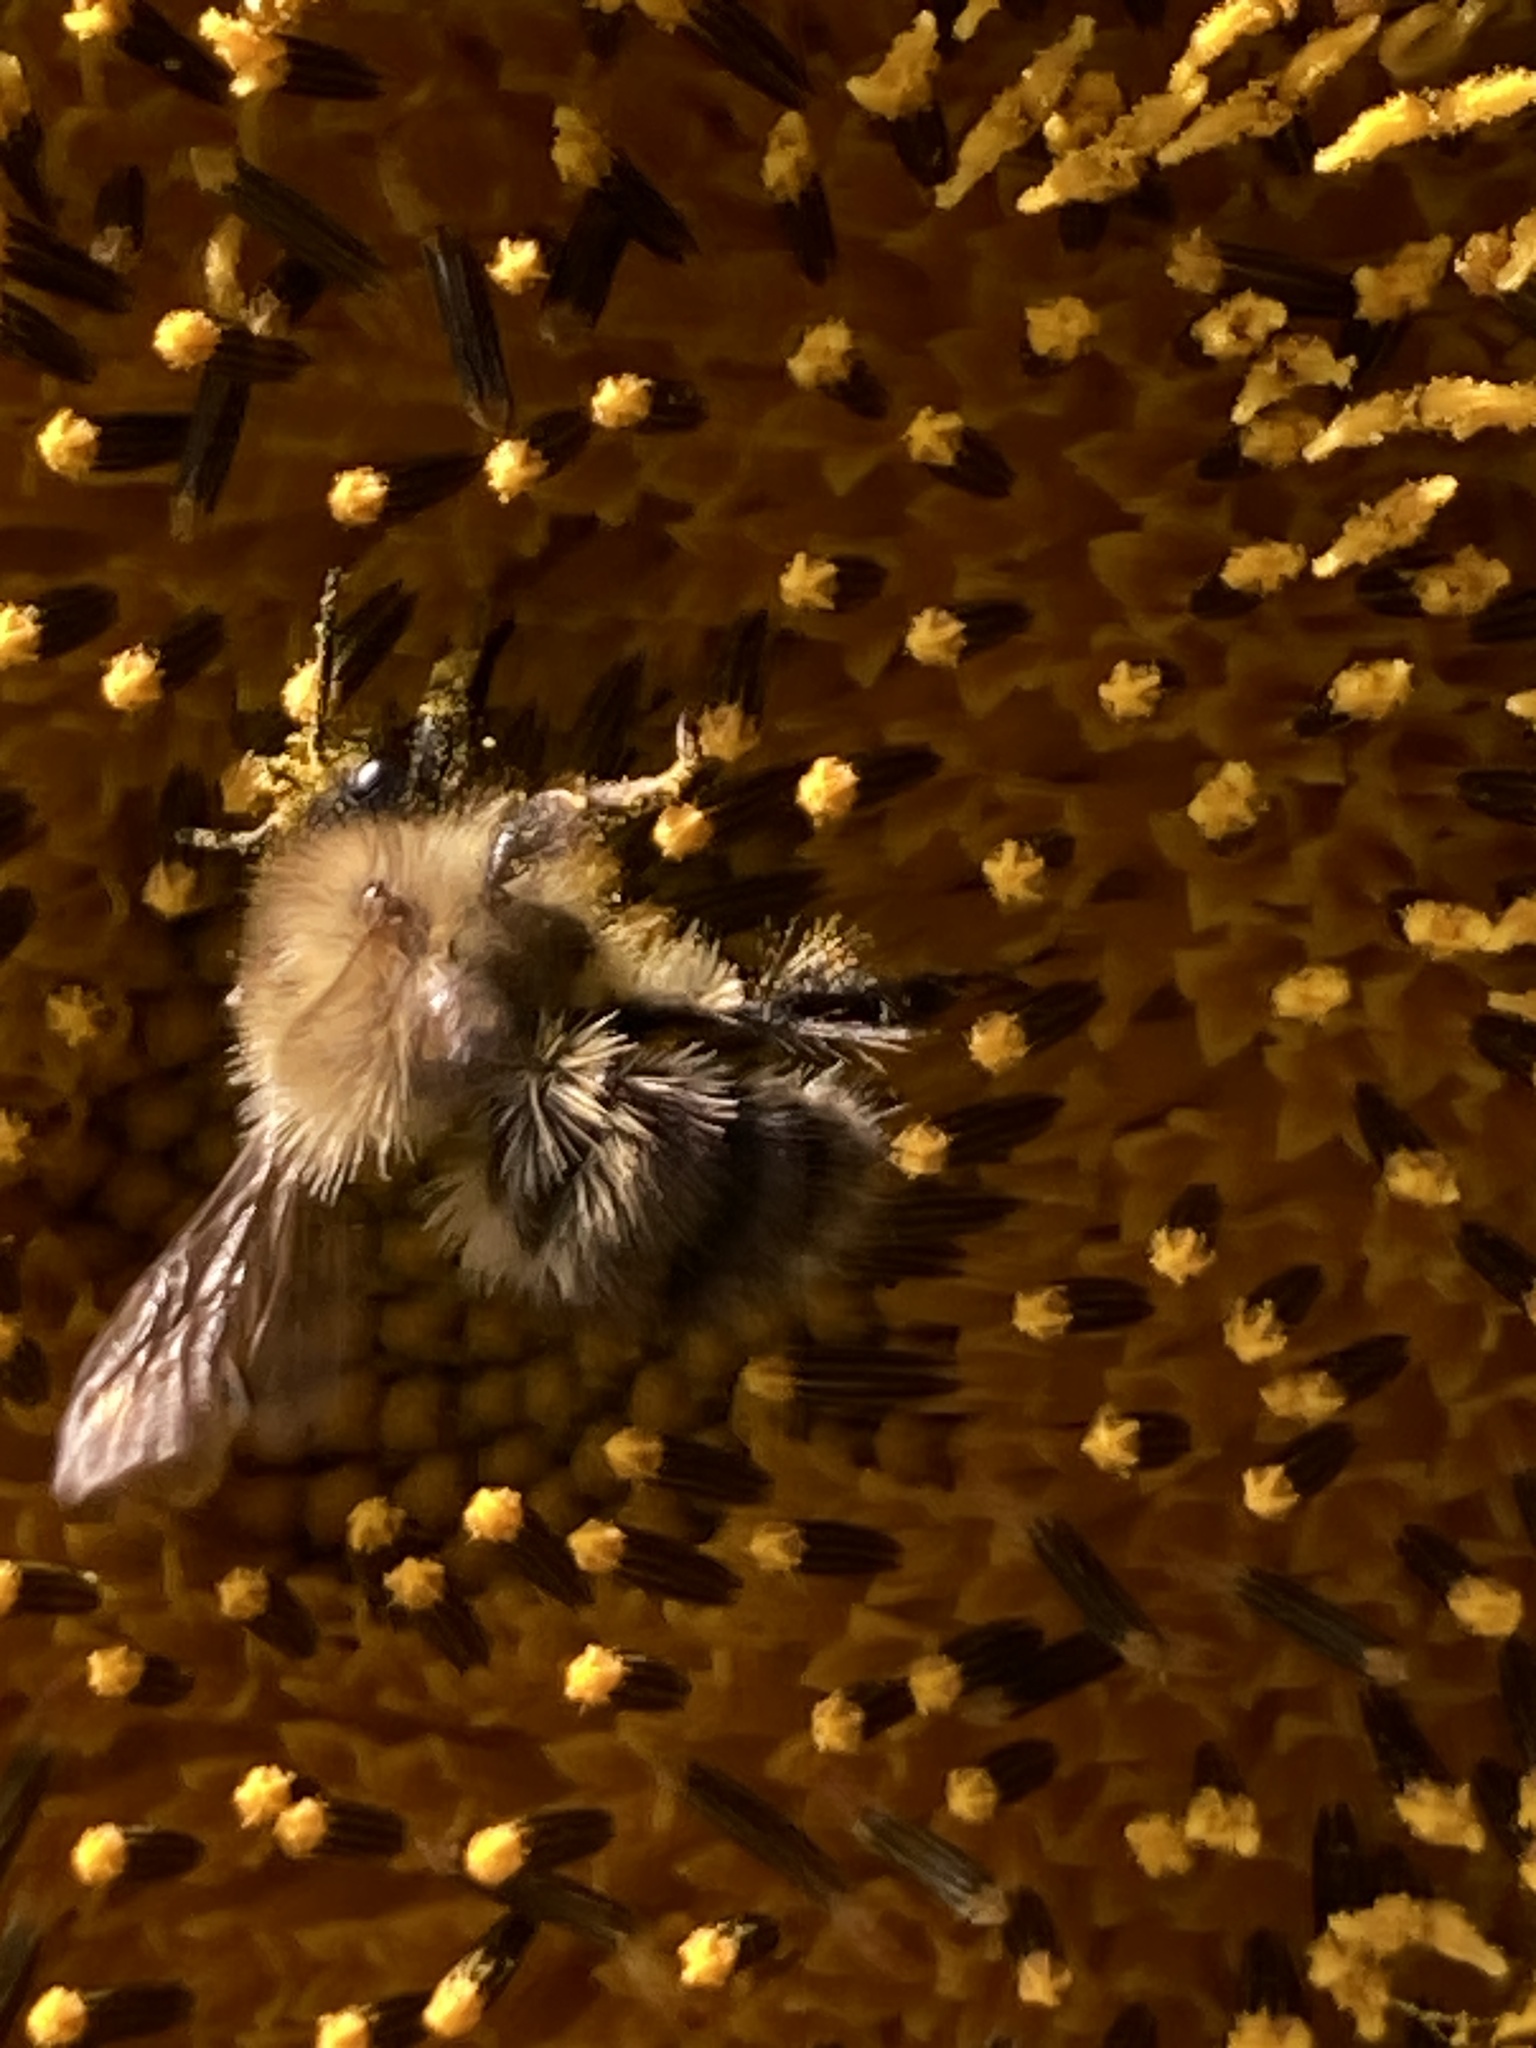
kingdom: Animalia
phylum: Arthropoda
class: Insecta
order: Hymenoptera
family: Apidae
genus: Bombus
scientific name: Bombus pascuorum
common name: Common carder bee
